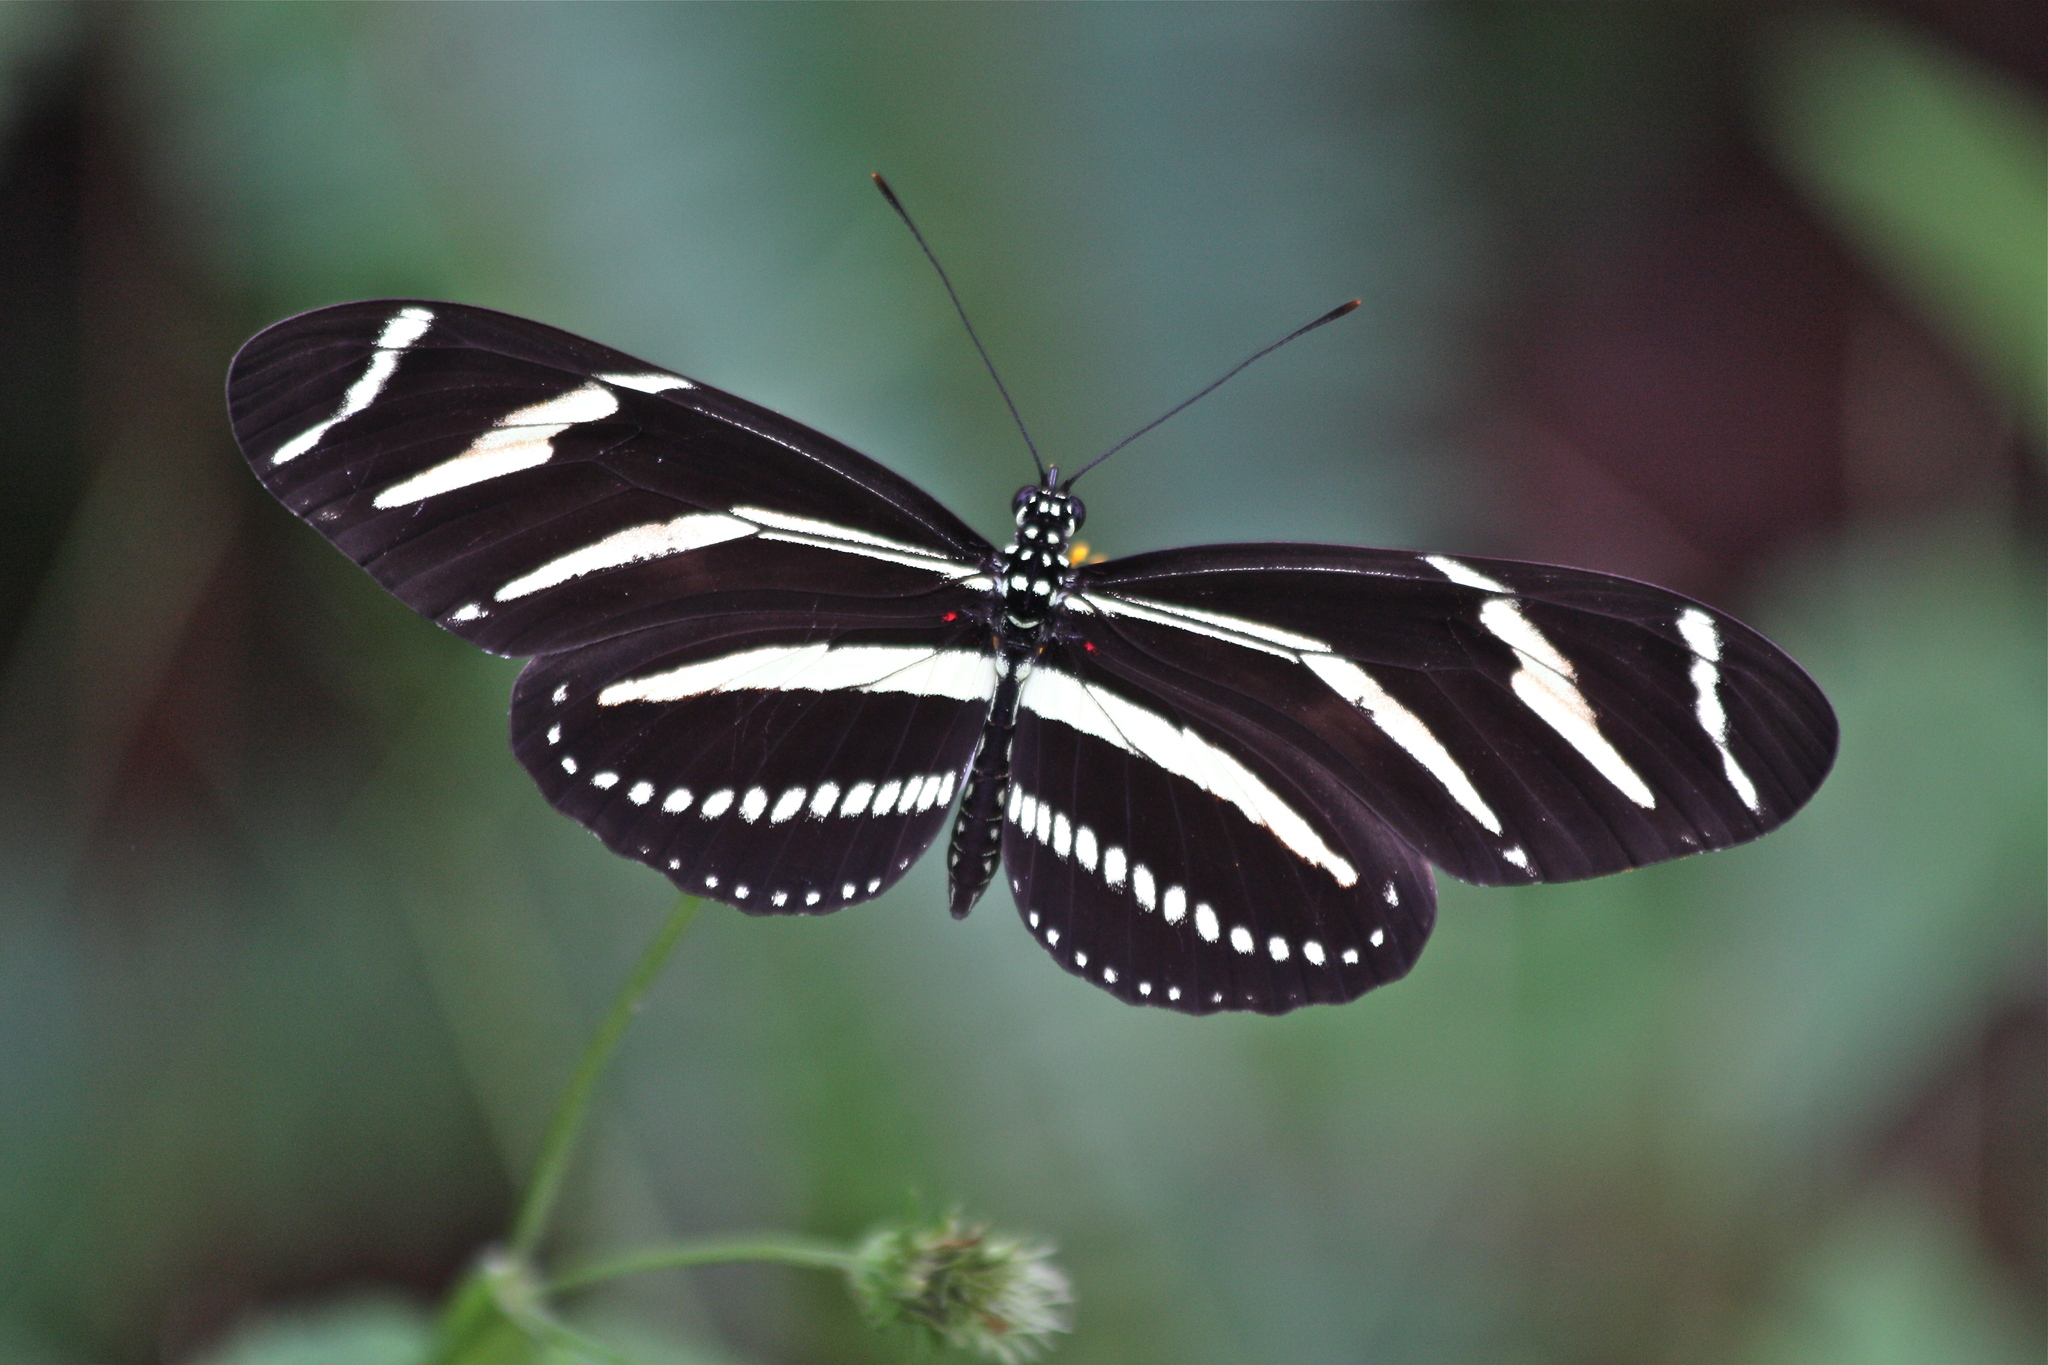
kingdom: Animalia
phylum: Arthropoda
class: Insecta
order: Lepidoptera
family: Nymphalidae
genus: Heliconius
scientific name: Heliconius charithonia
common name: Zebra long wing
